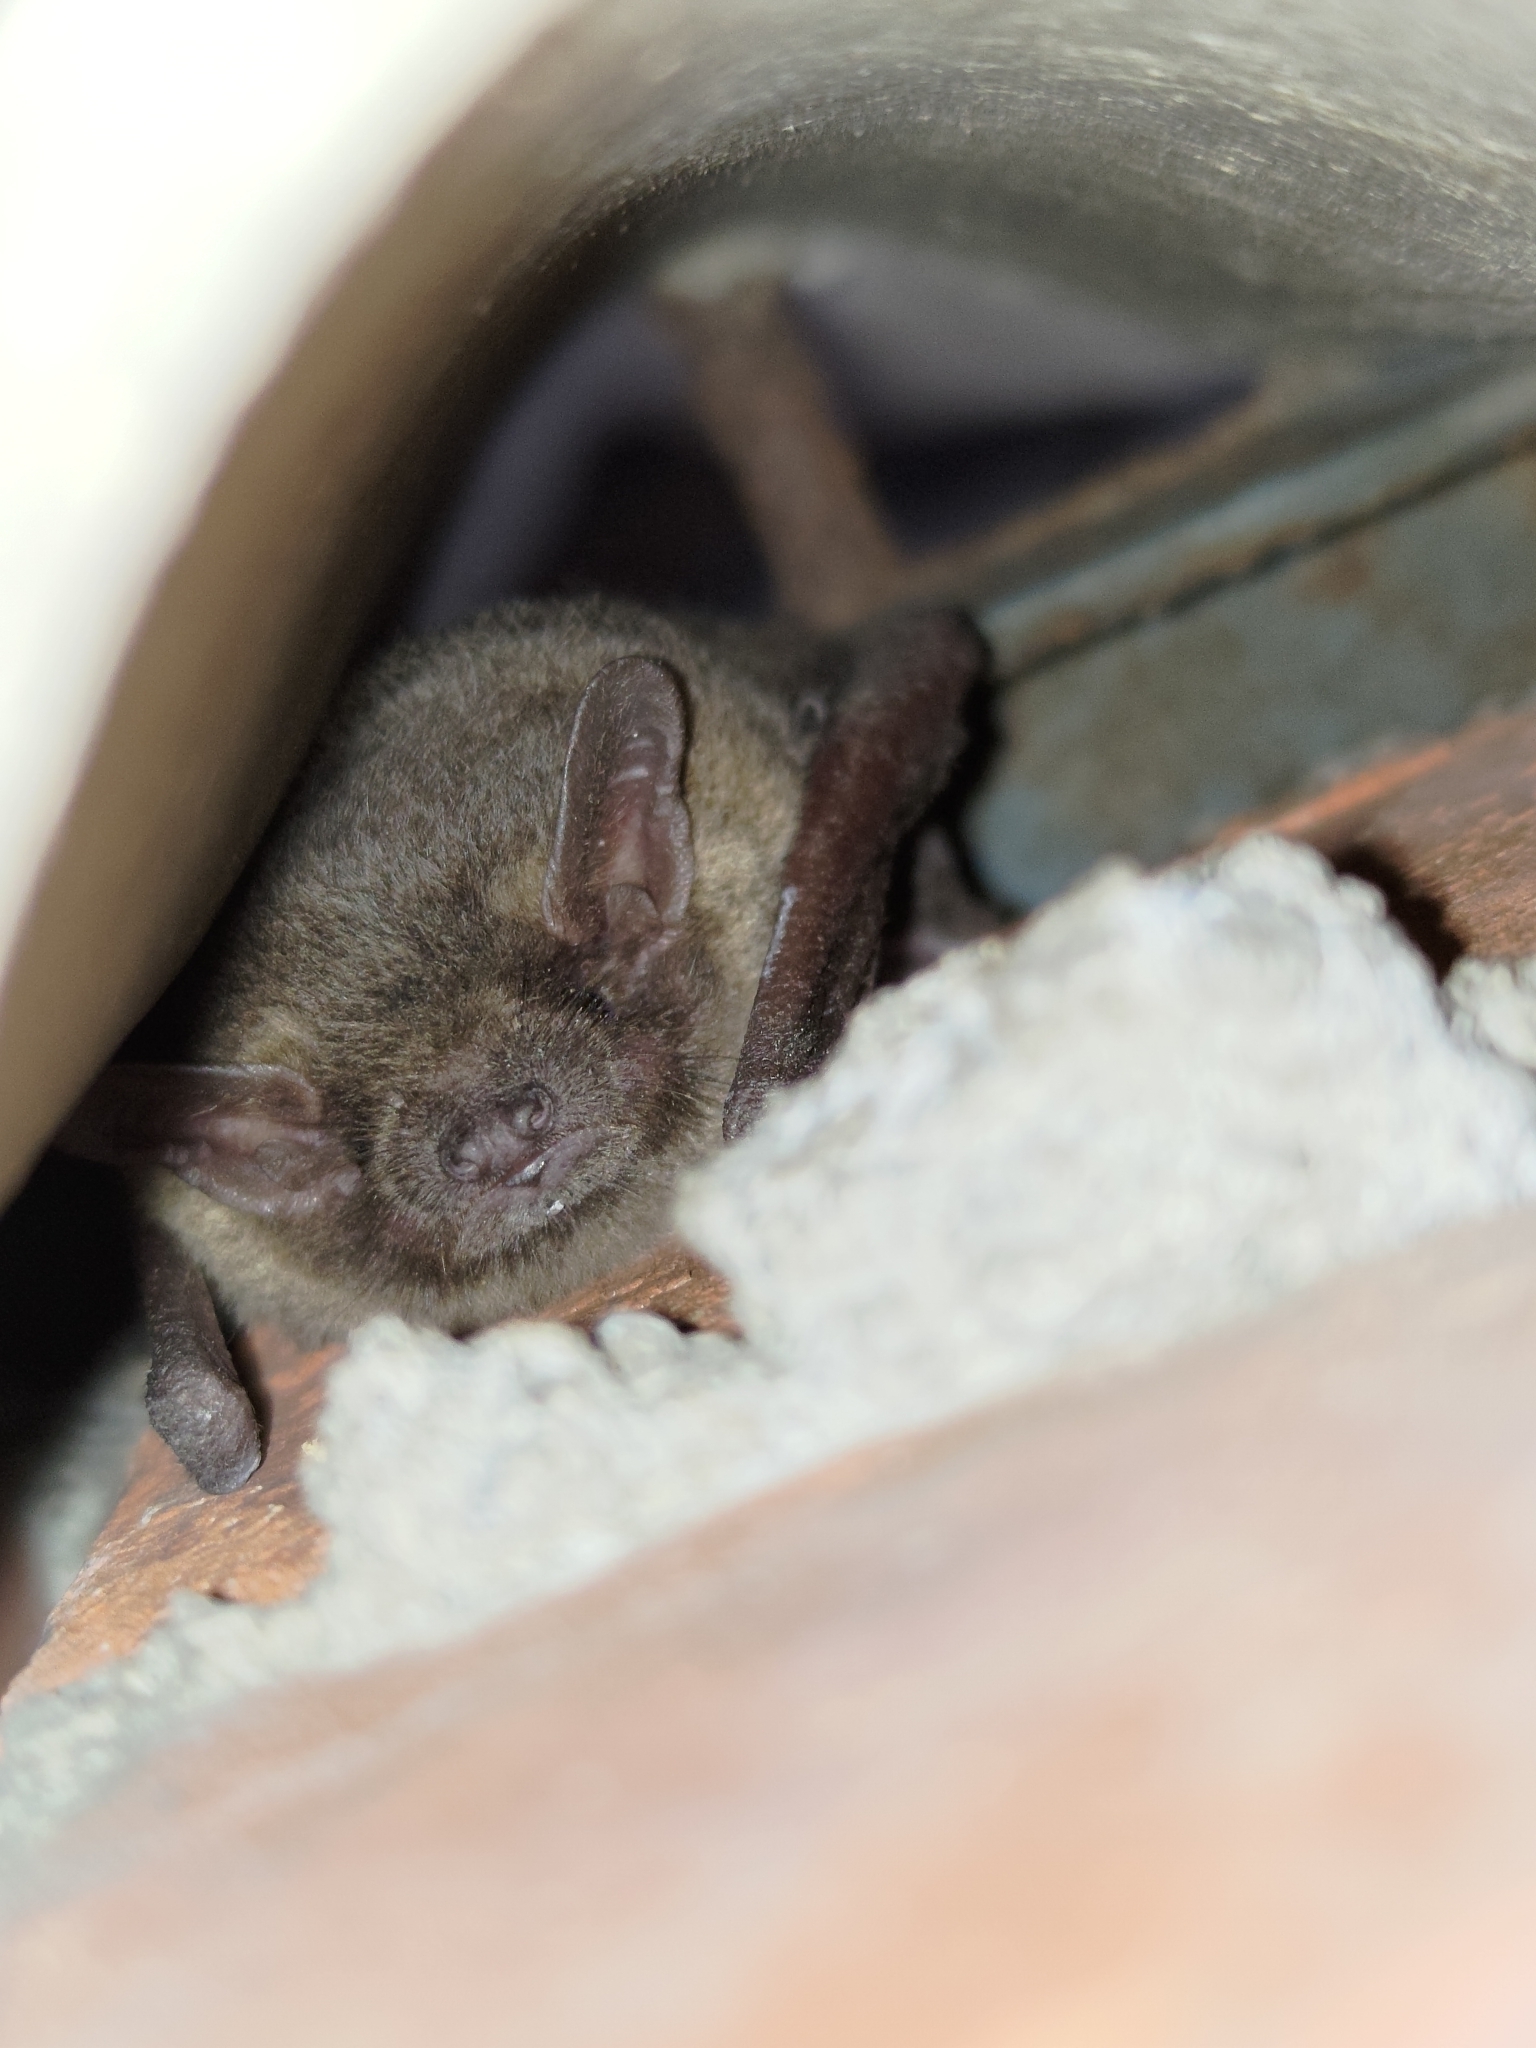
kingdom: Animalia
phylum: Chordata
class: Mammalia
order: Chiroptera
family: Vespertilionidae
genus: Pipistrellus
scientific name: Pipistrellus abramus
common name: Japanese pipistrelle
